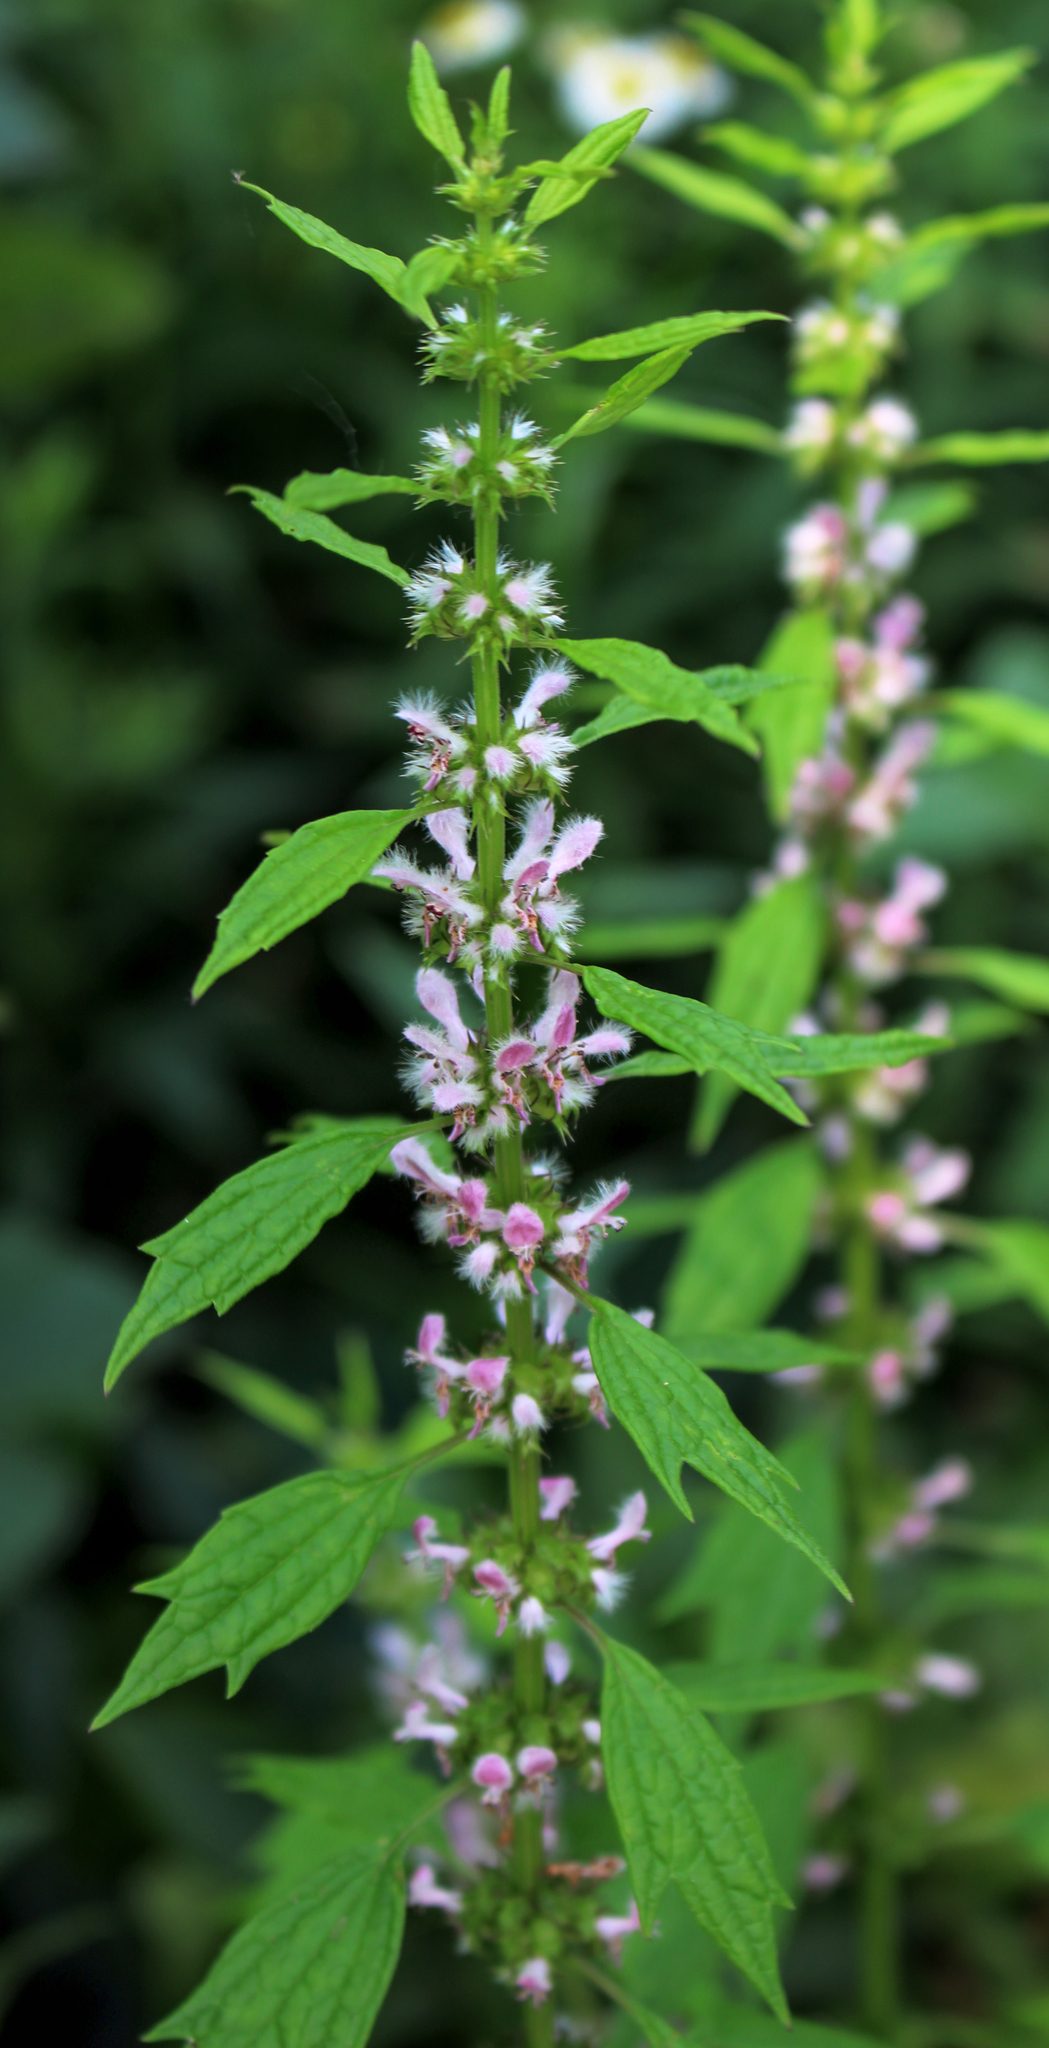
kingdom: Plantae
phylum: Tracheophyta
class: Magnoliopsida
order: Lamiales
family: Lamiaceae
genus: Leonurus
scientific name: Leonurus cardiaca
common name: Motherwort
